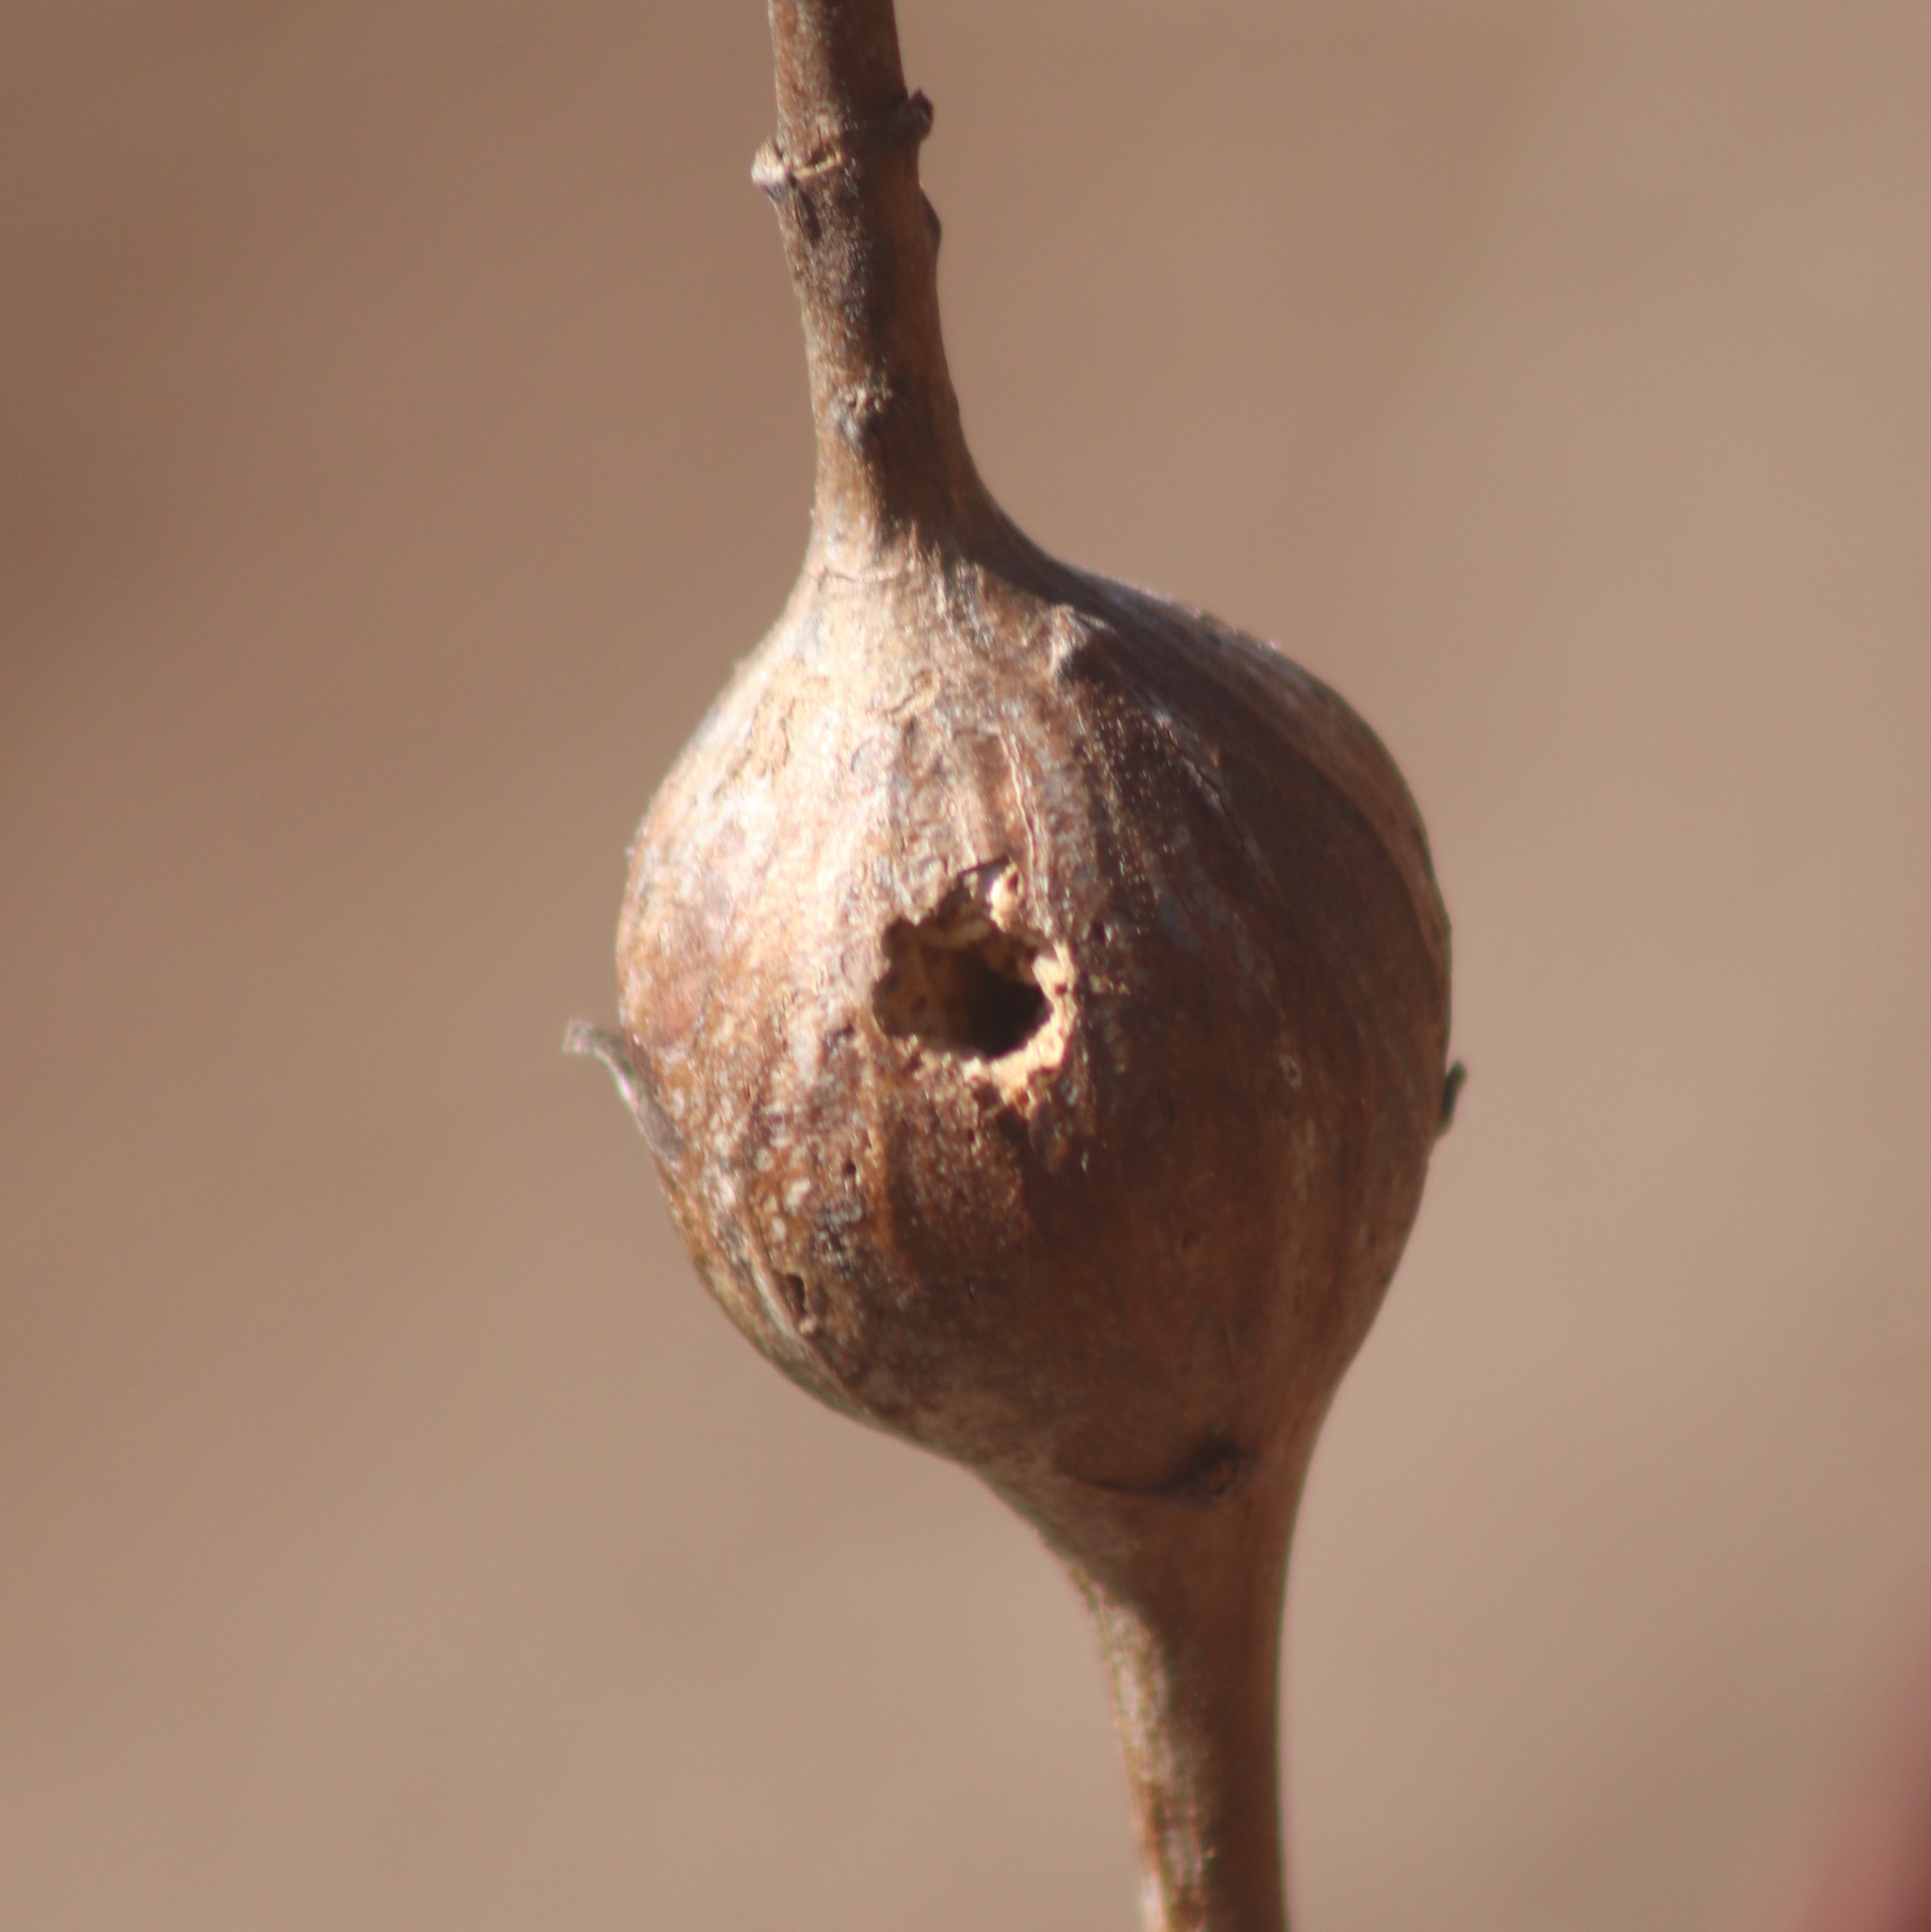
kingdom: Animalia
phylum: Arthropoda
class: Insecta
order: Diptera
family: Tephritidae
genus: Eurosta
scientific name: Eurosta solidaginis
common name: Goldenrod gall fly
